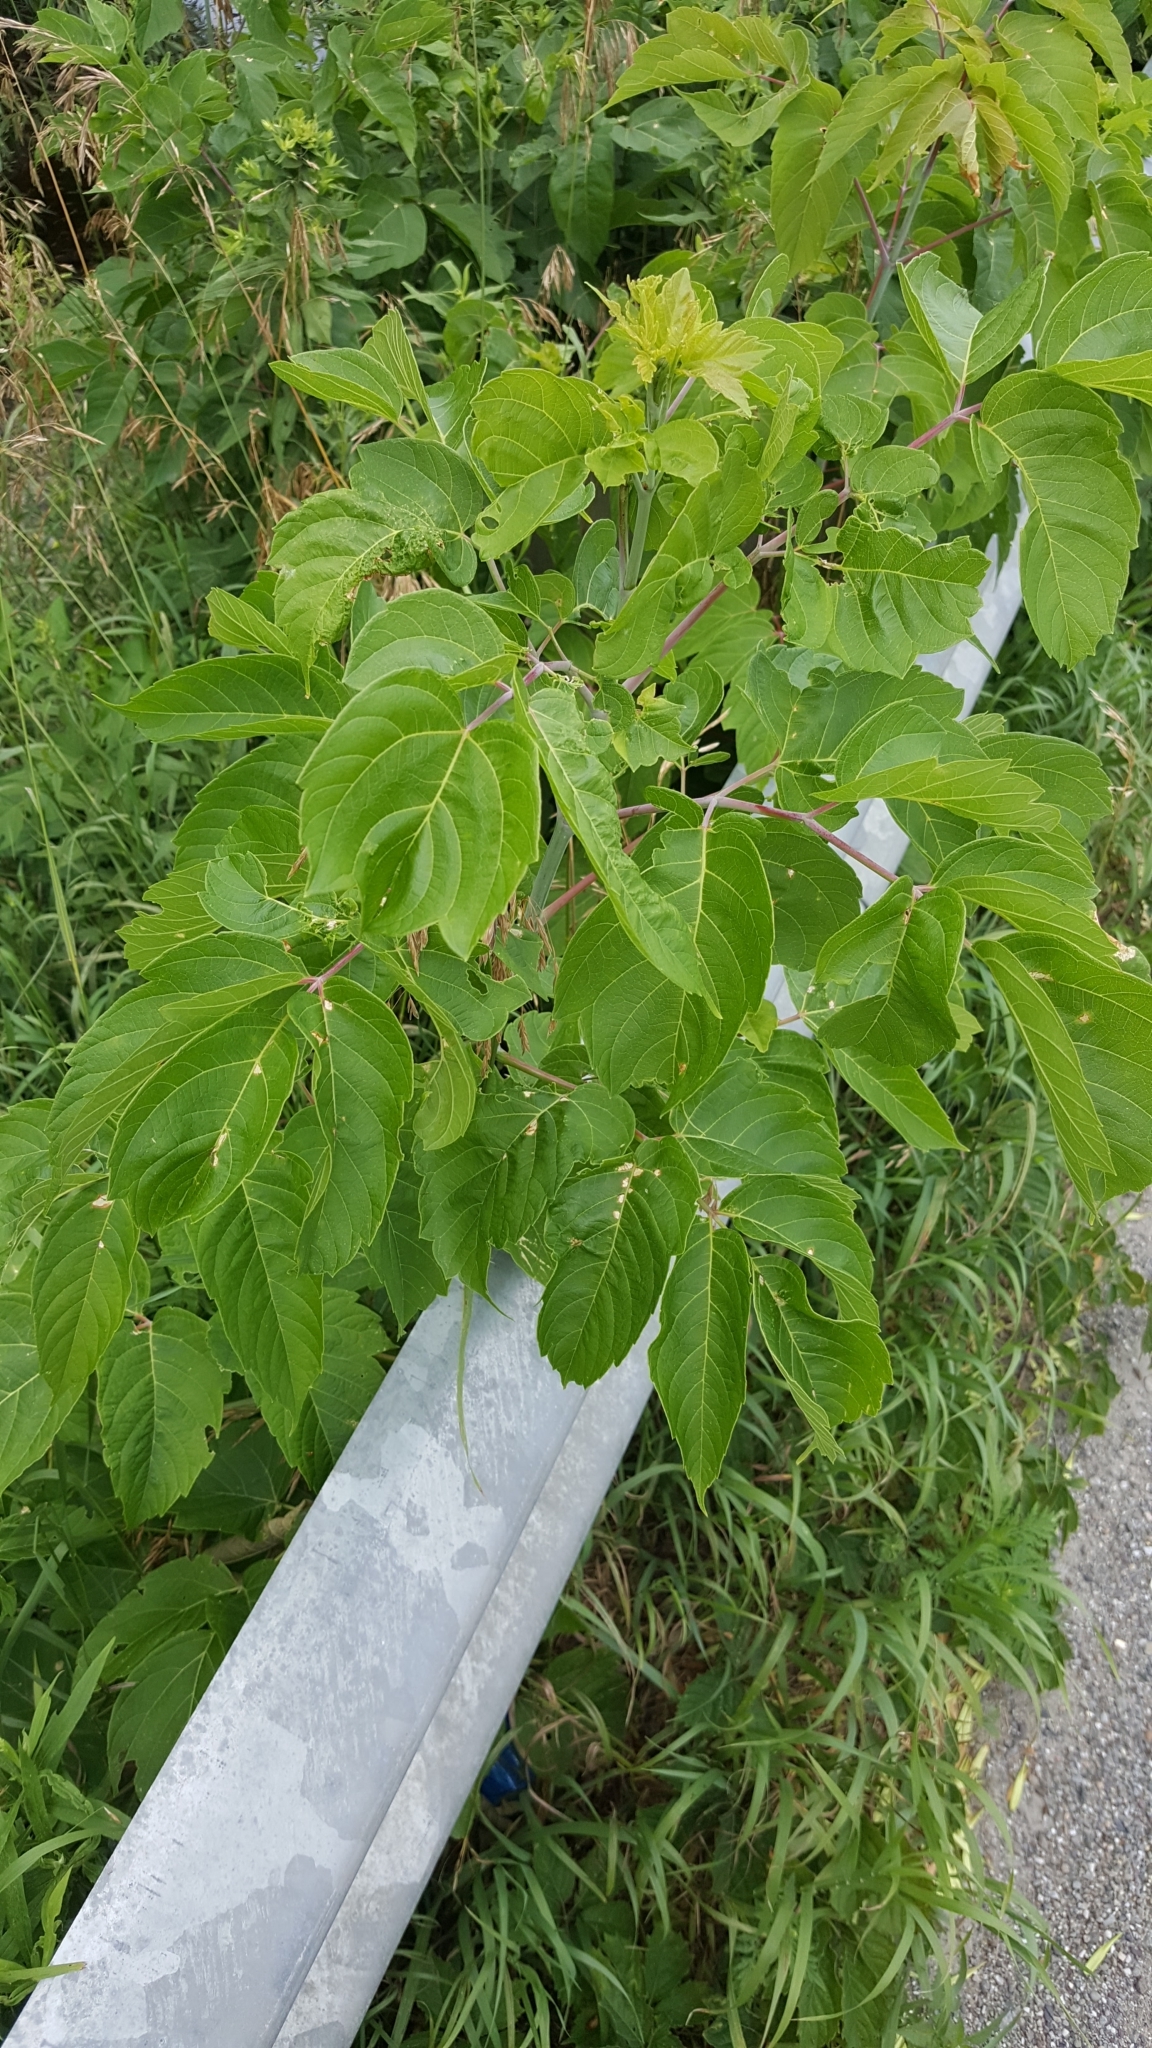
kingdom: Plantae
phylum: Tracheophyta
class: Magnoliopsida
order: Sapindales
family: Sapindaceae
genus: Acer
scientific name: Acer negundo
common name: Ashleaf maple
